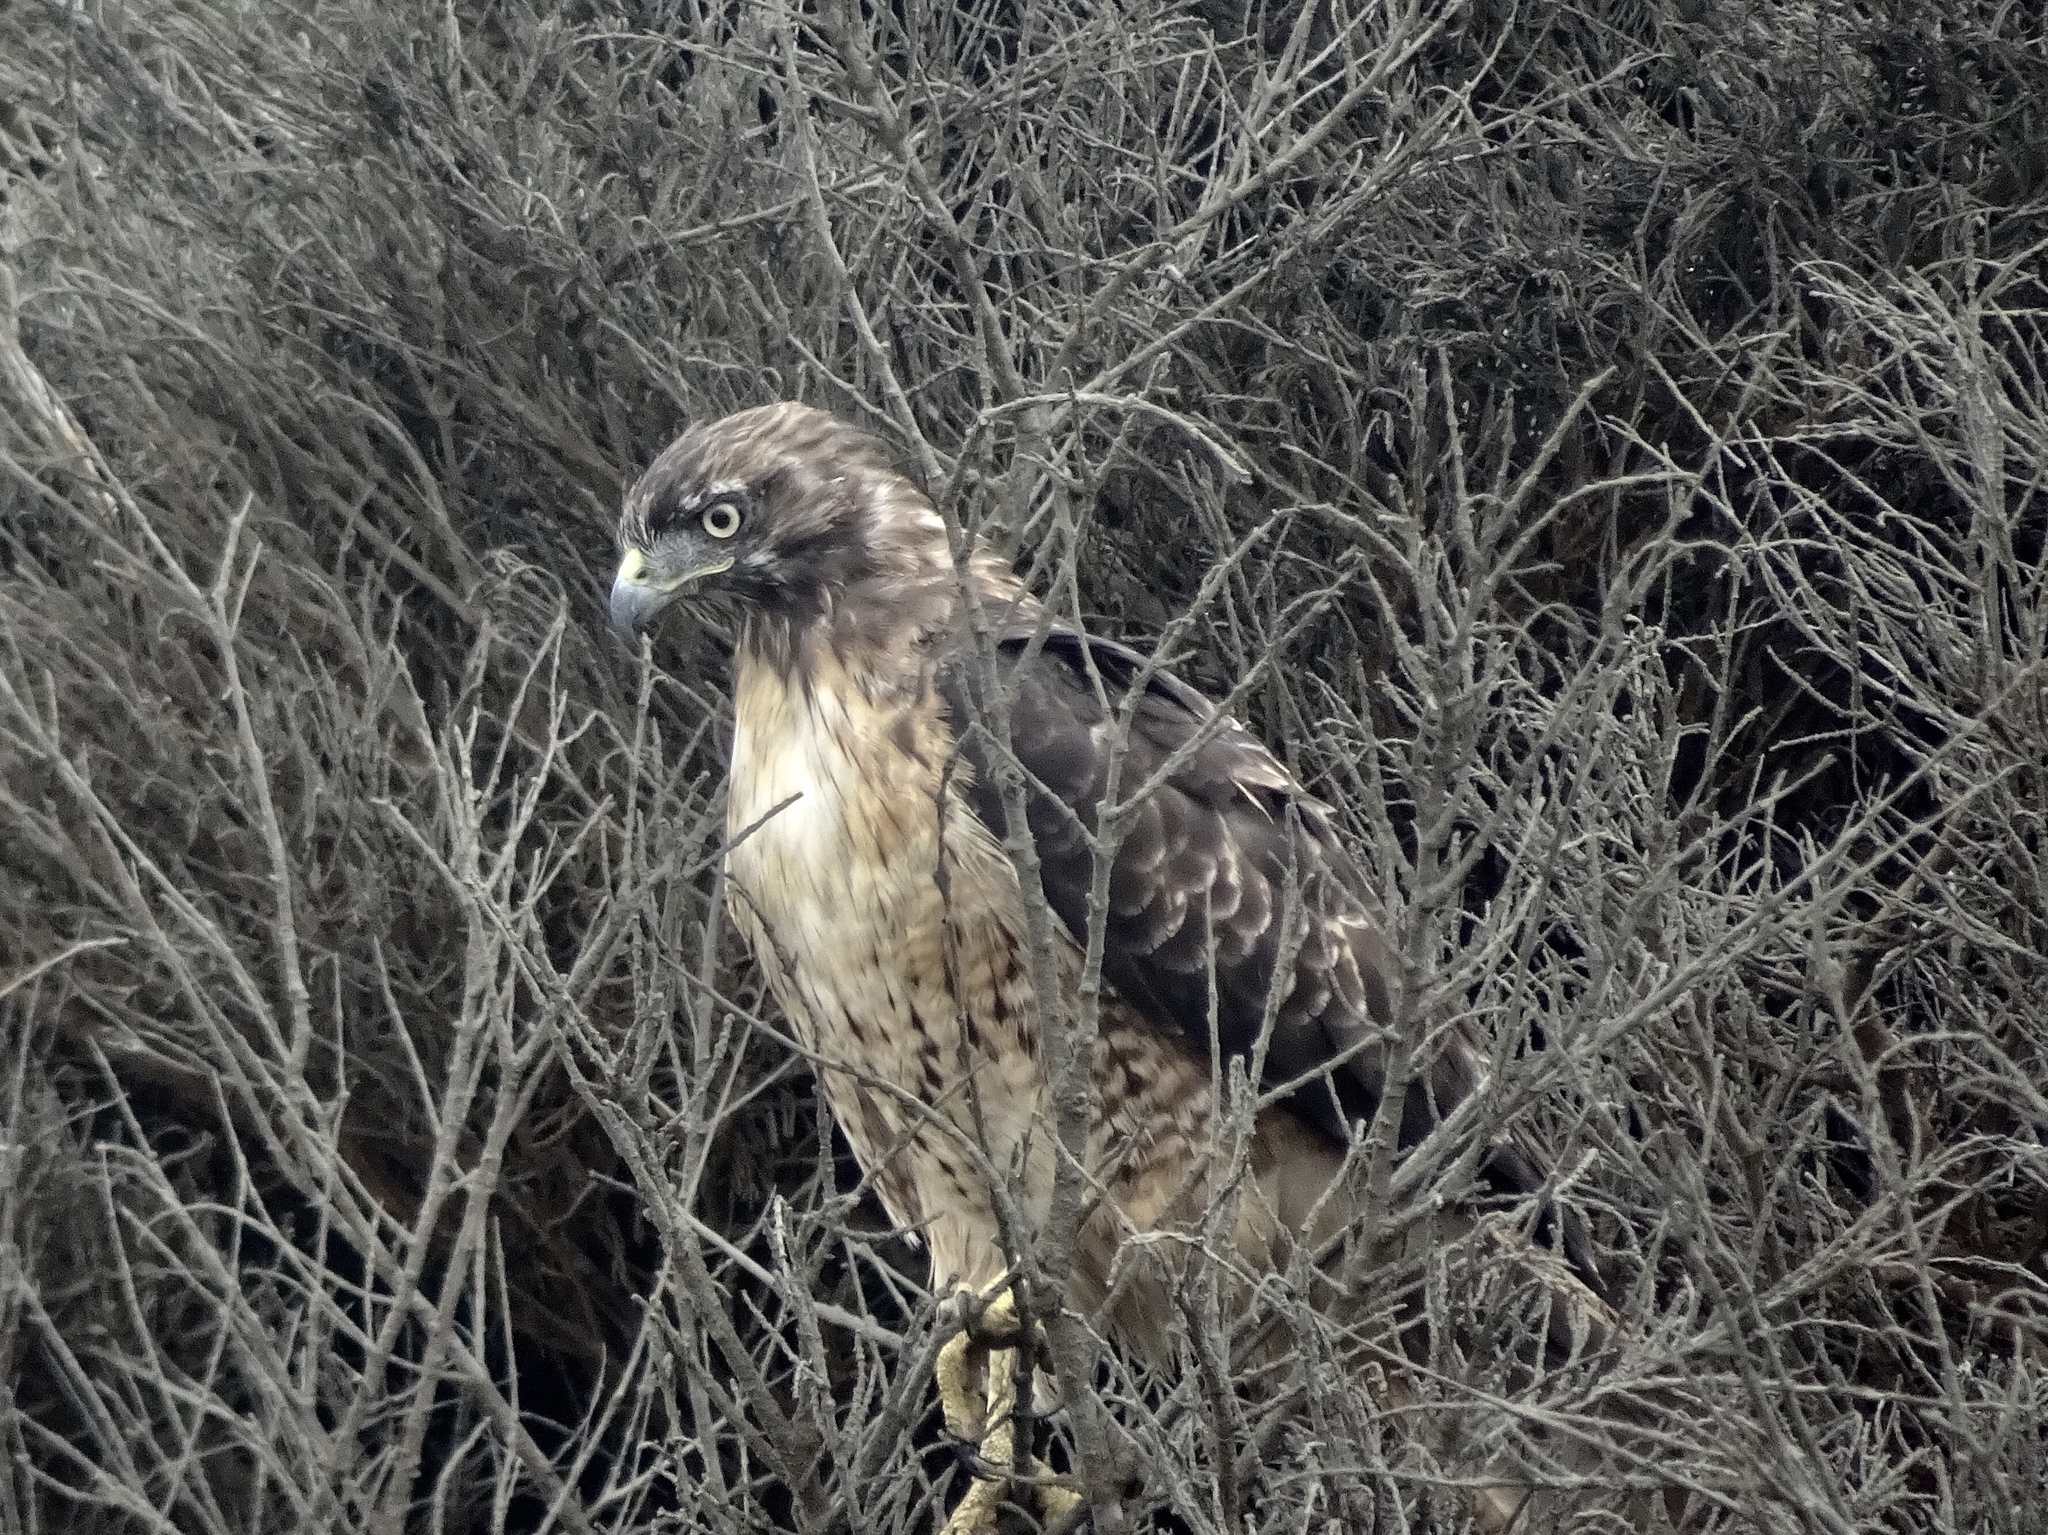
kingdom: Animalia
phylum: Chordata
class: Aves
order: Accipitriformes
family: Accipitridae
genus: Buteo
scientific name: Buteo jamaicensis
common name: Red-tailed hawk
